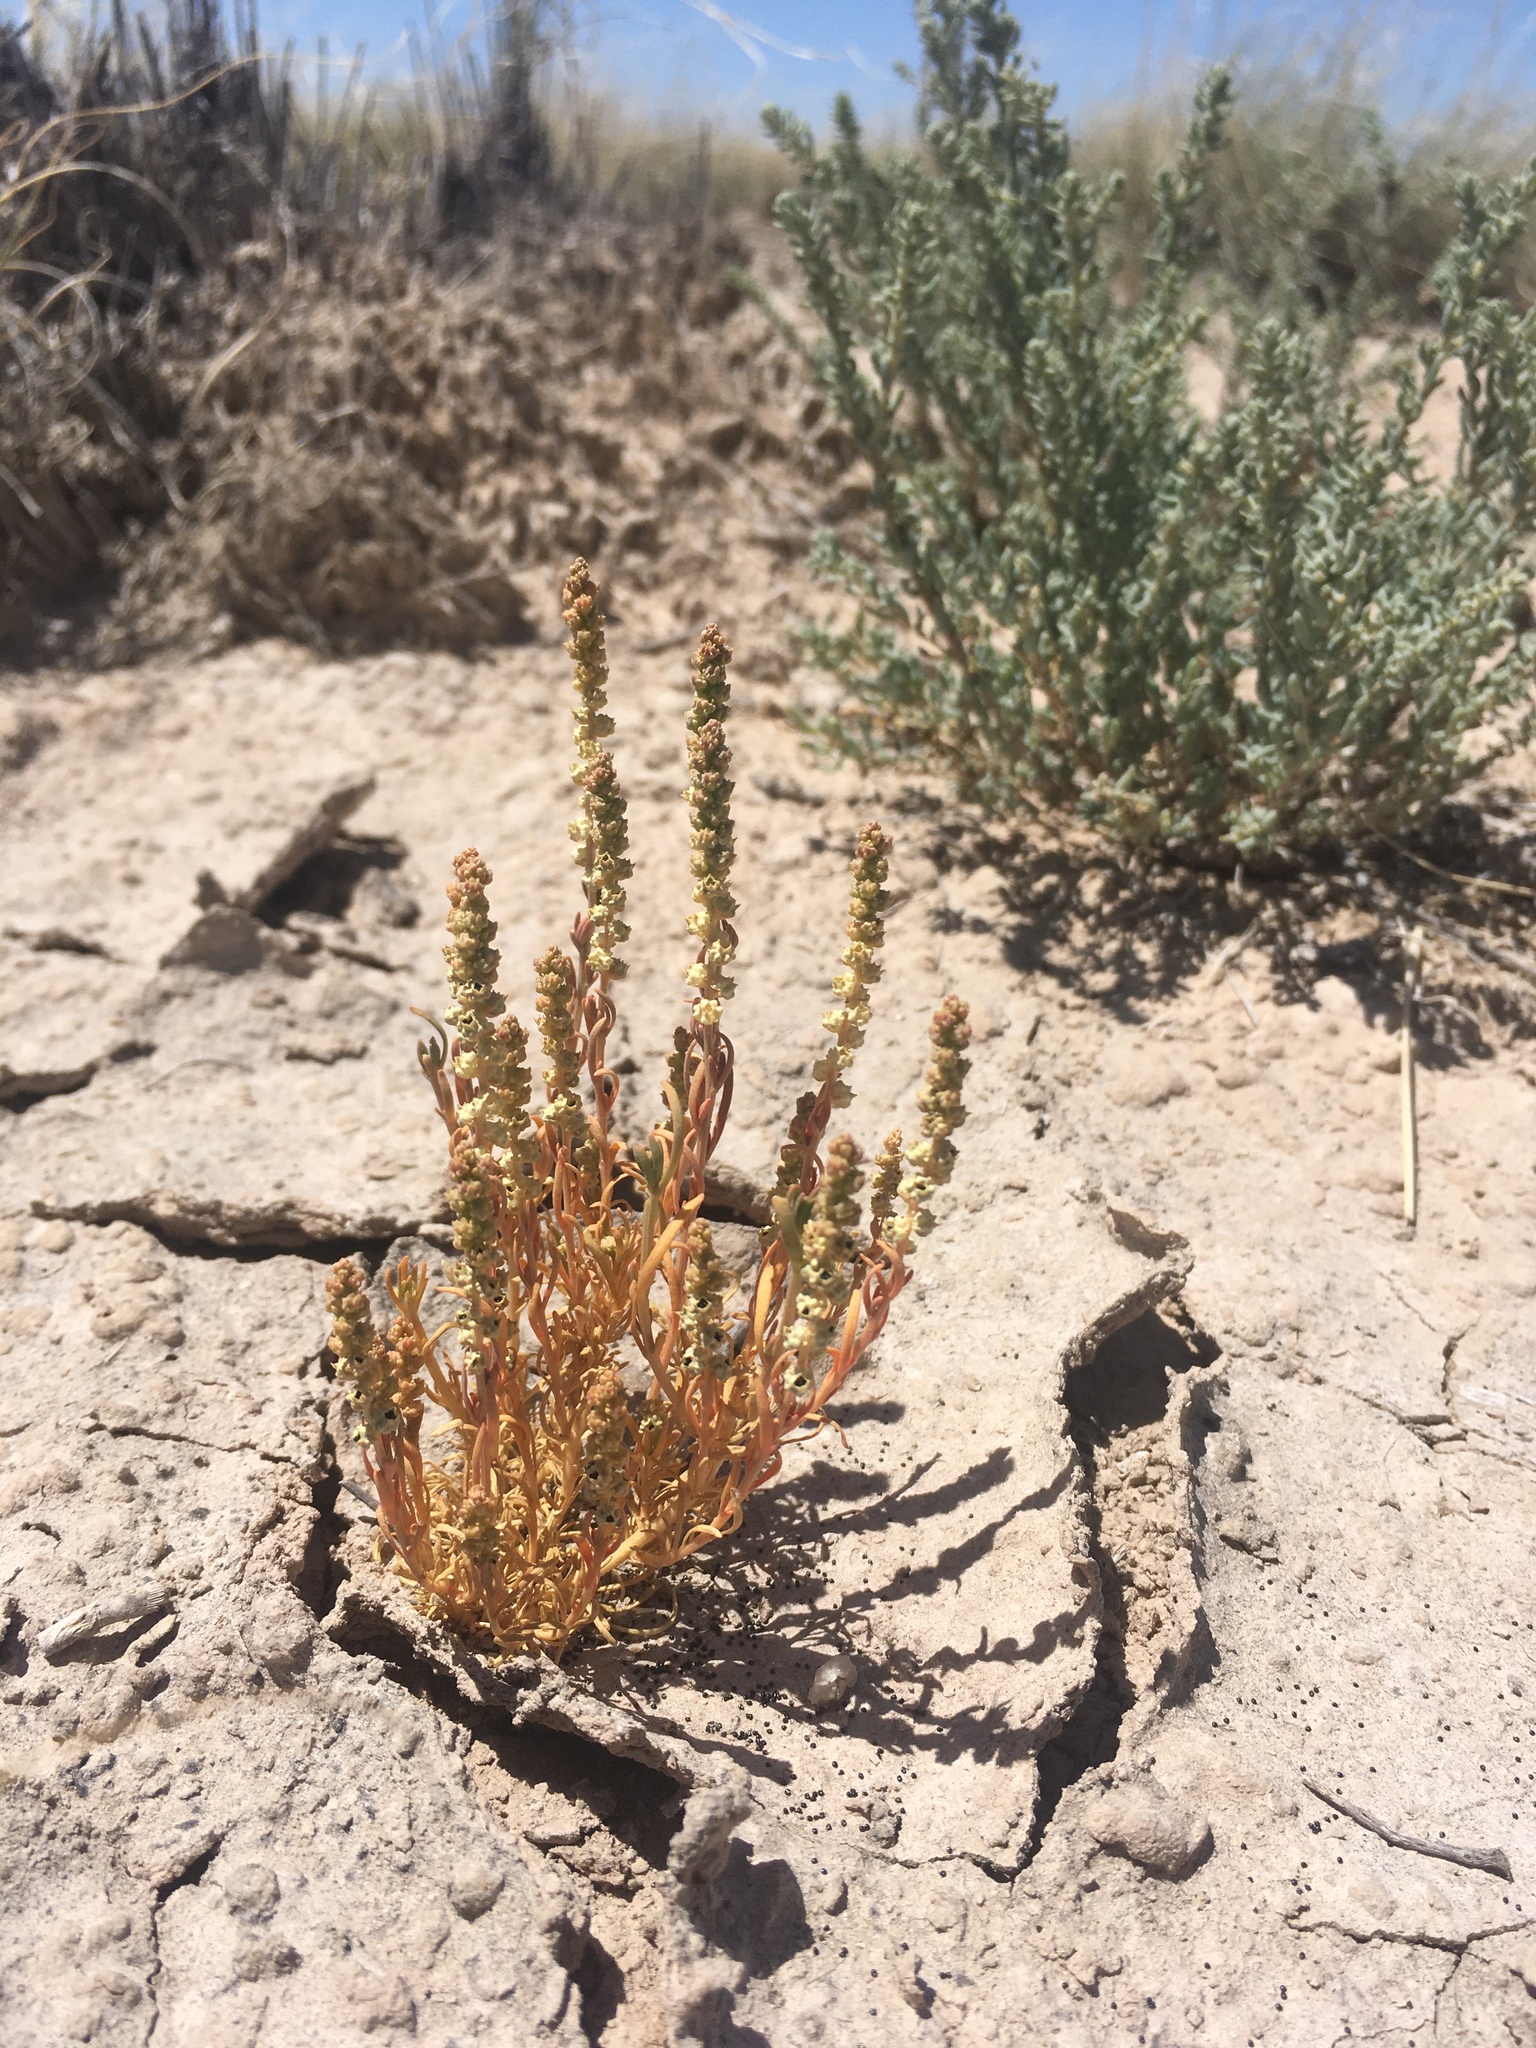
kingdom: Plantae
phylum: Tracheophyta
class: Magnoliopsida
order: Brassicales
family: Resedaceae
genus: Oligomeris
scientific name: Oligomeris linifolia
